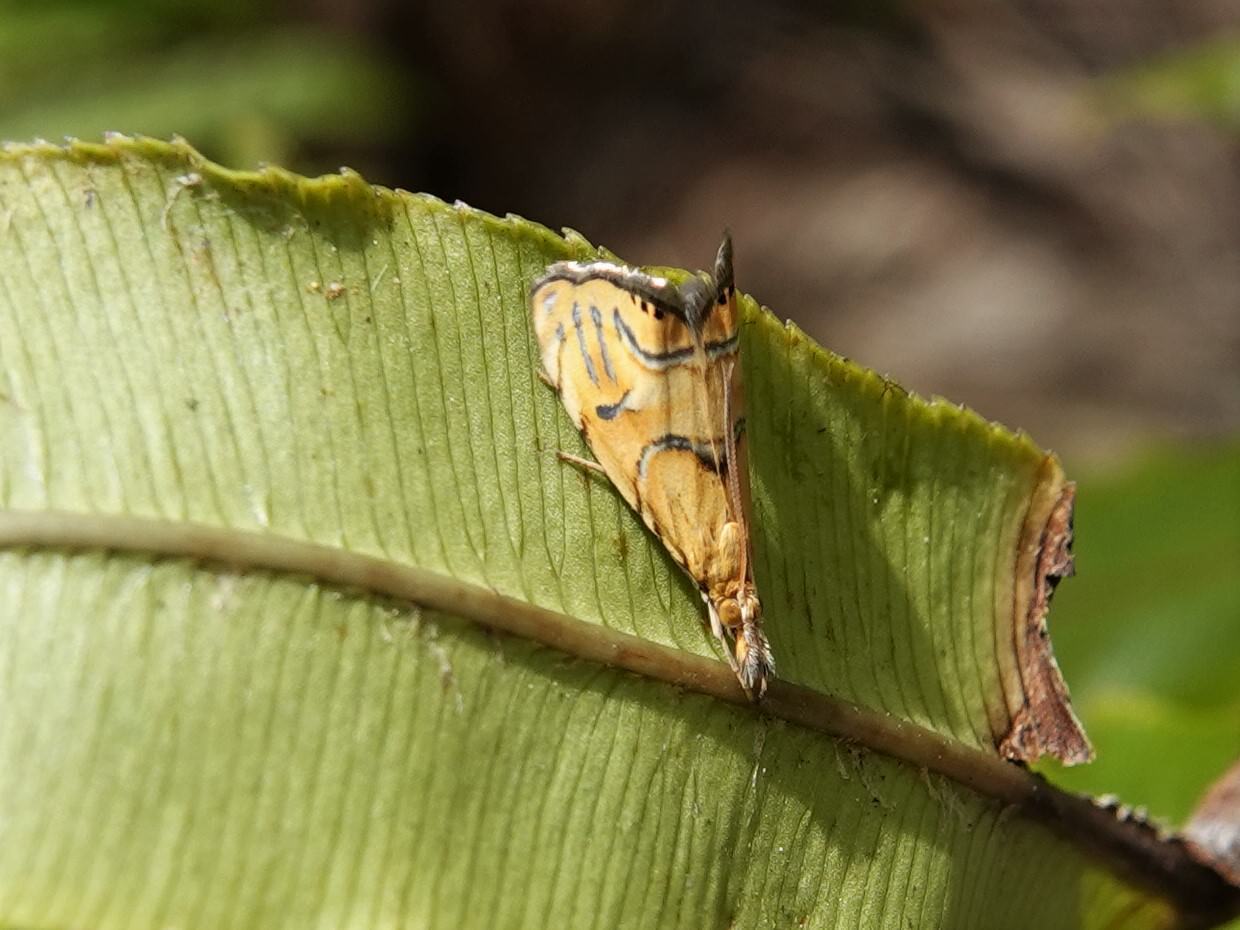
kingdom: Animalia
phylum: Arthropoda
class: Insecta
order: Lepidoptera
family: Crambidae
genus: Glaucocharis
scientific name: Glaucocharis auriscriptella
